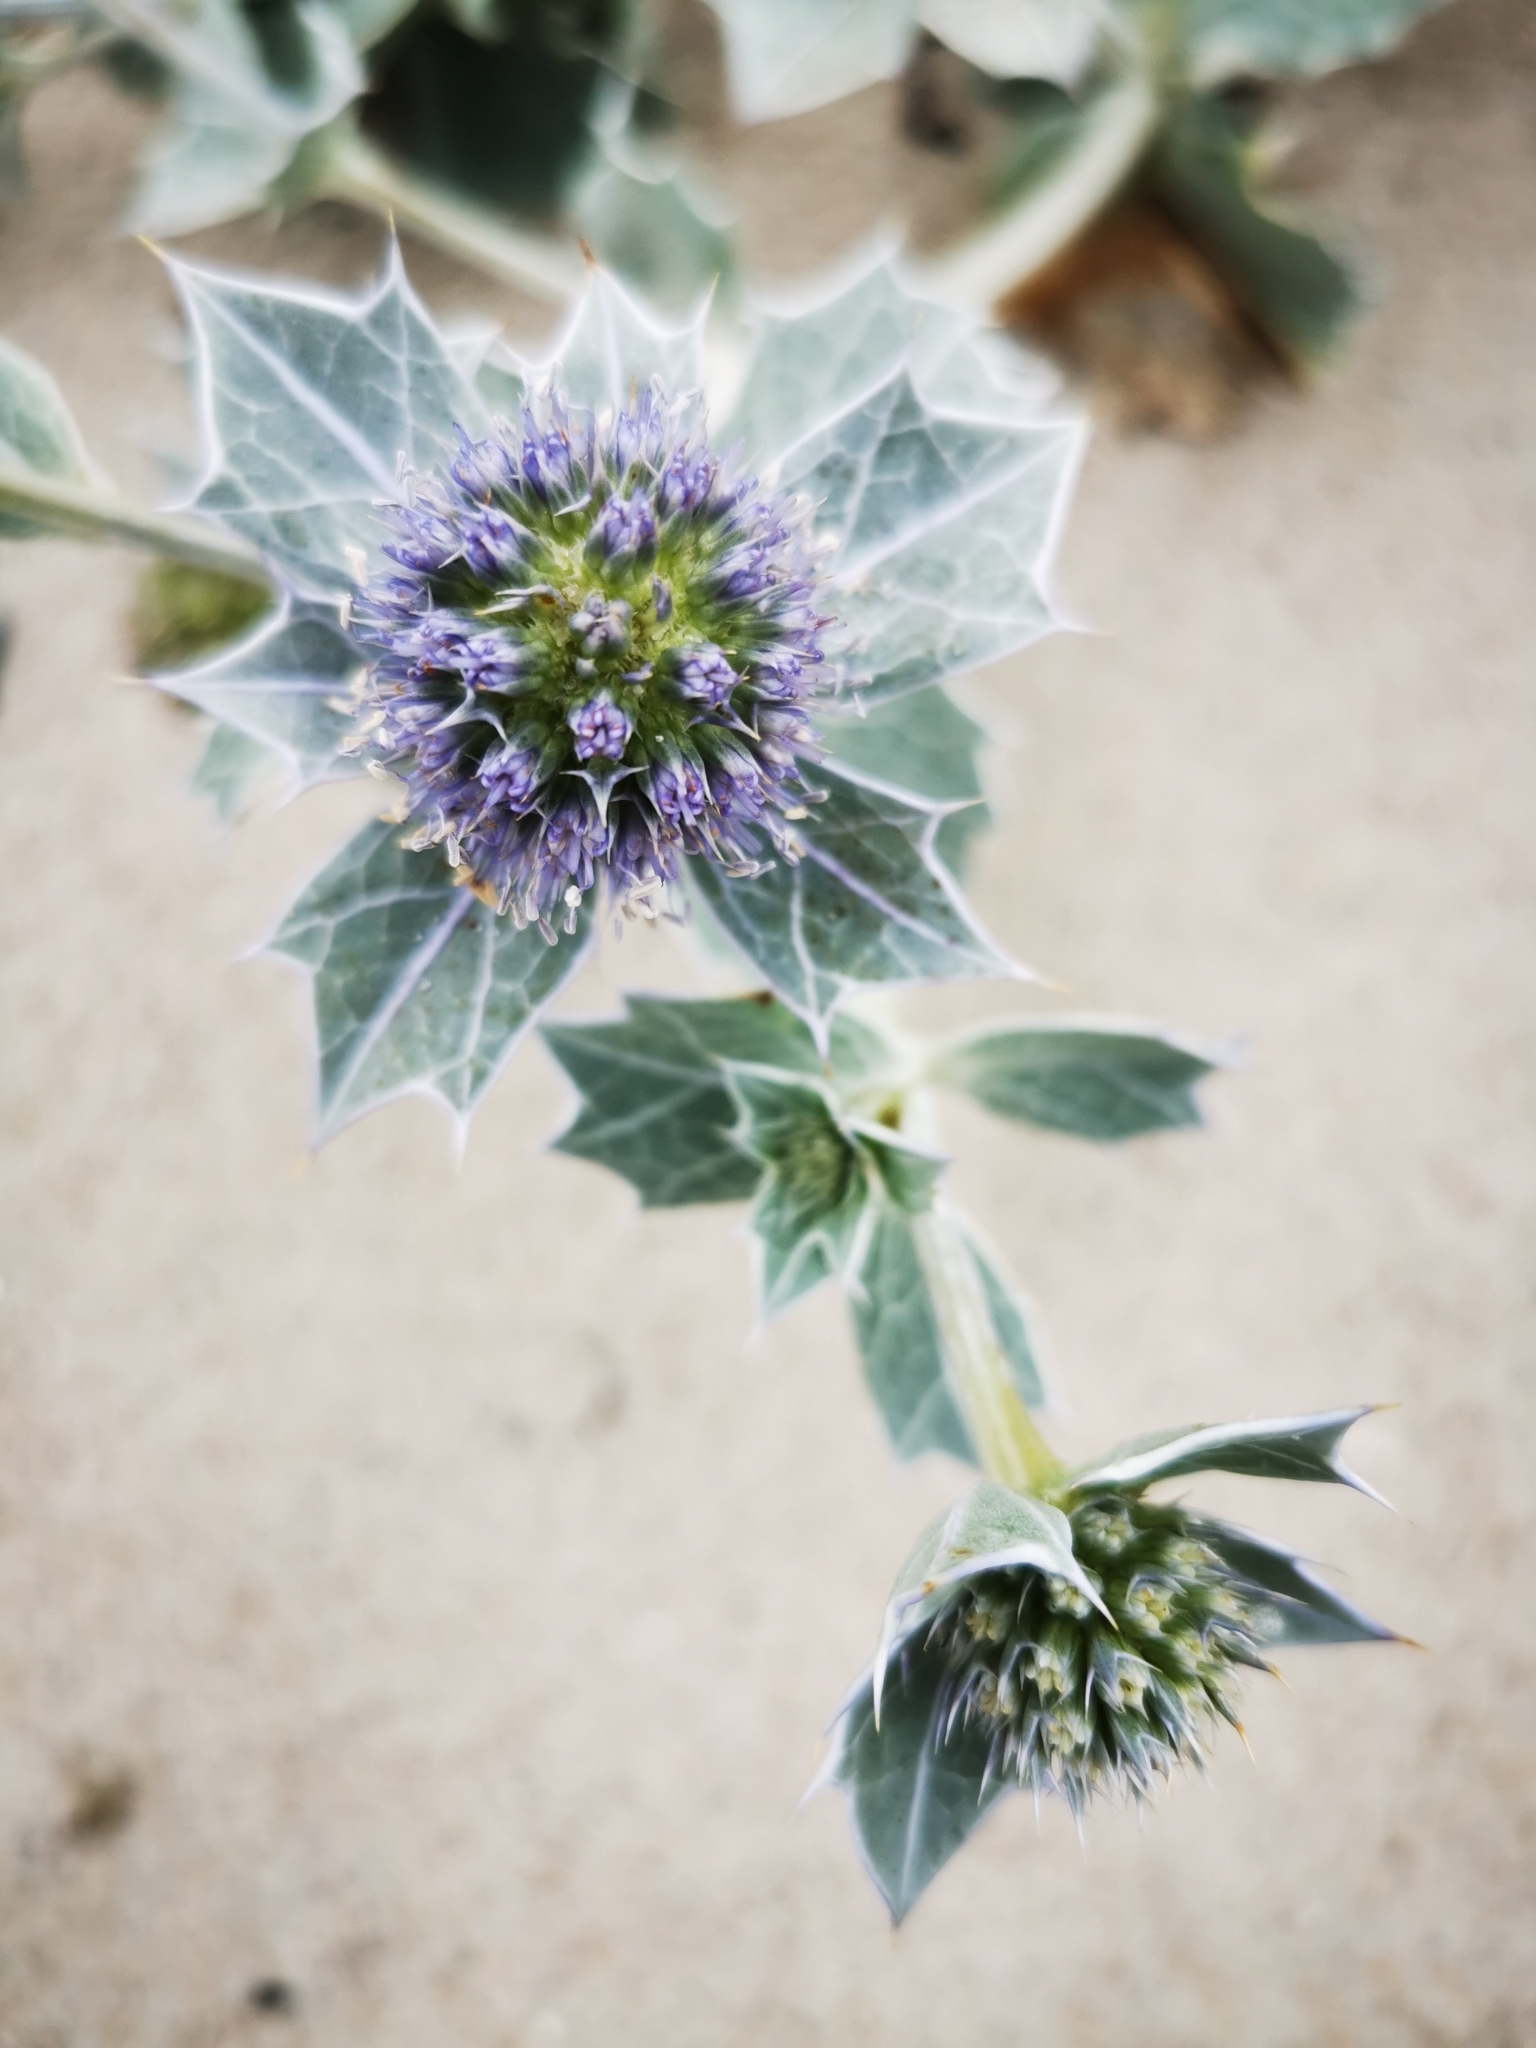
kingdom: Plantae
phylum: Tracheophyta
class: Magnoliopsida
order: Apiales
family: Apiaceae
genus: Eryngium
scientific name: Eryngium maritimum
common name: Sea-holly
